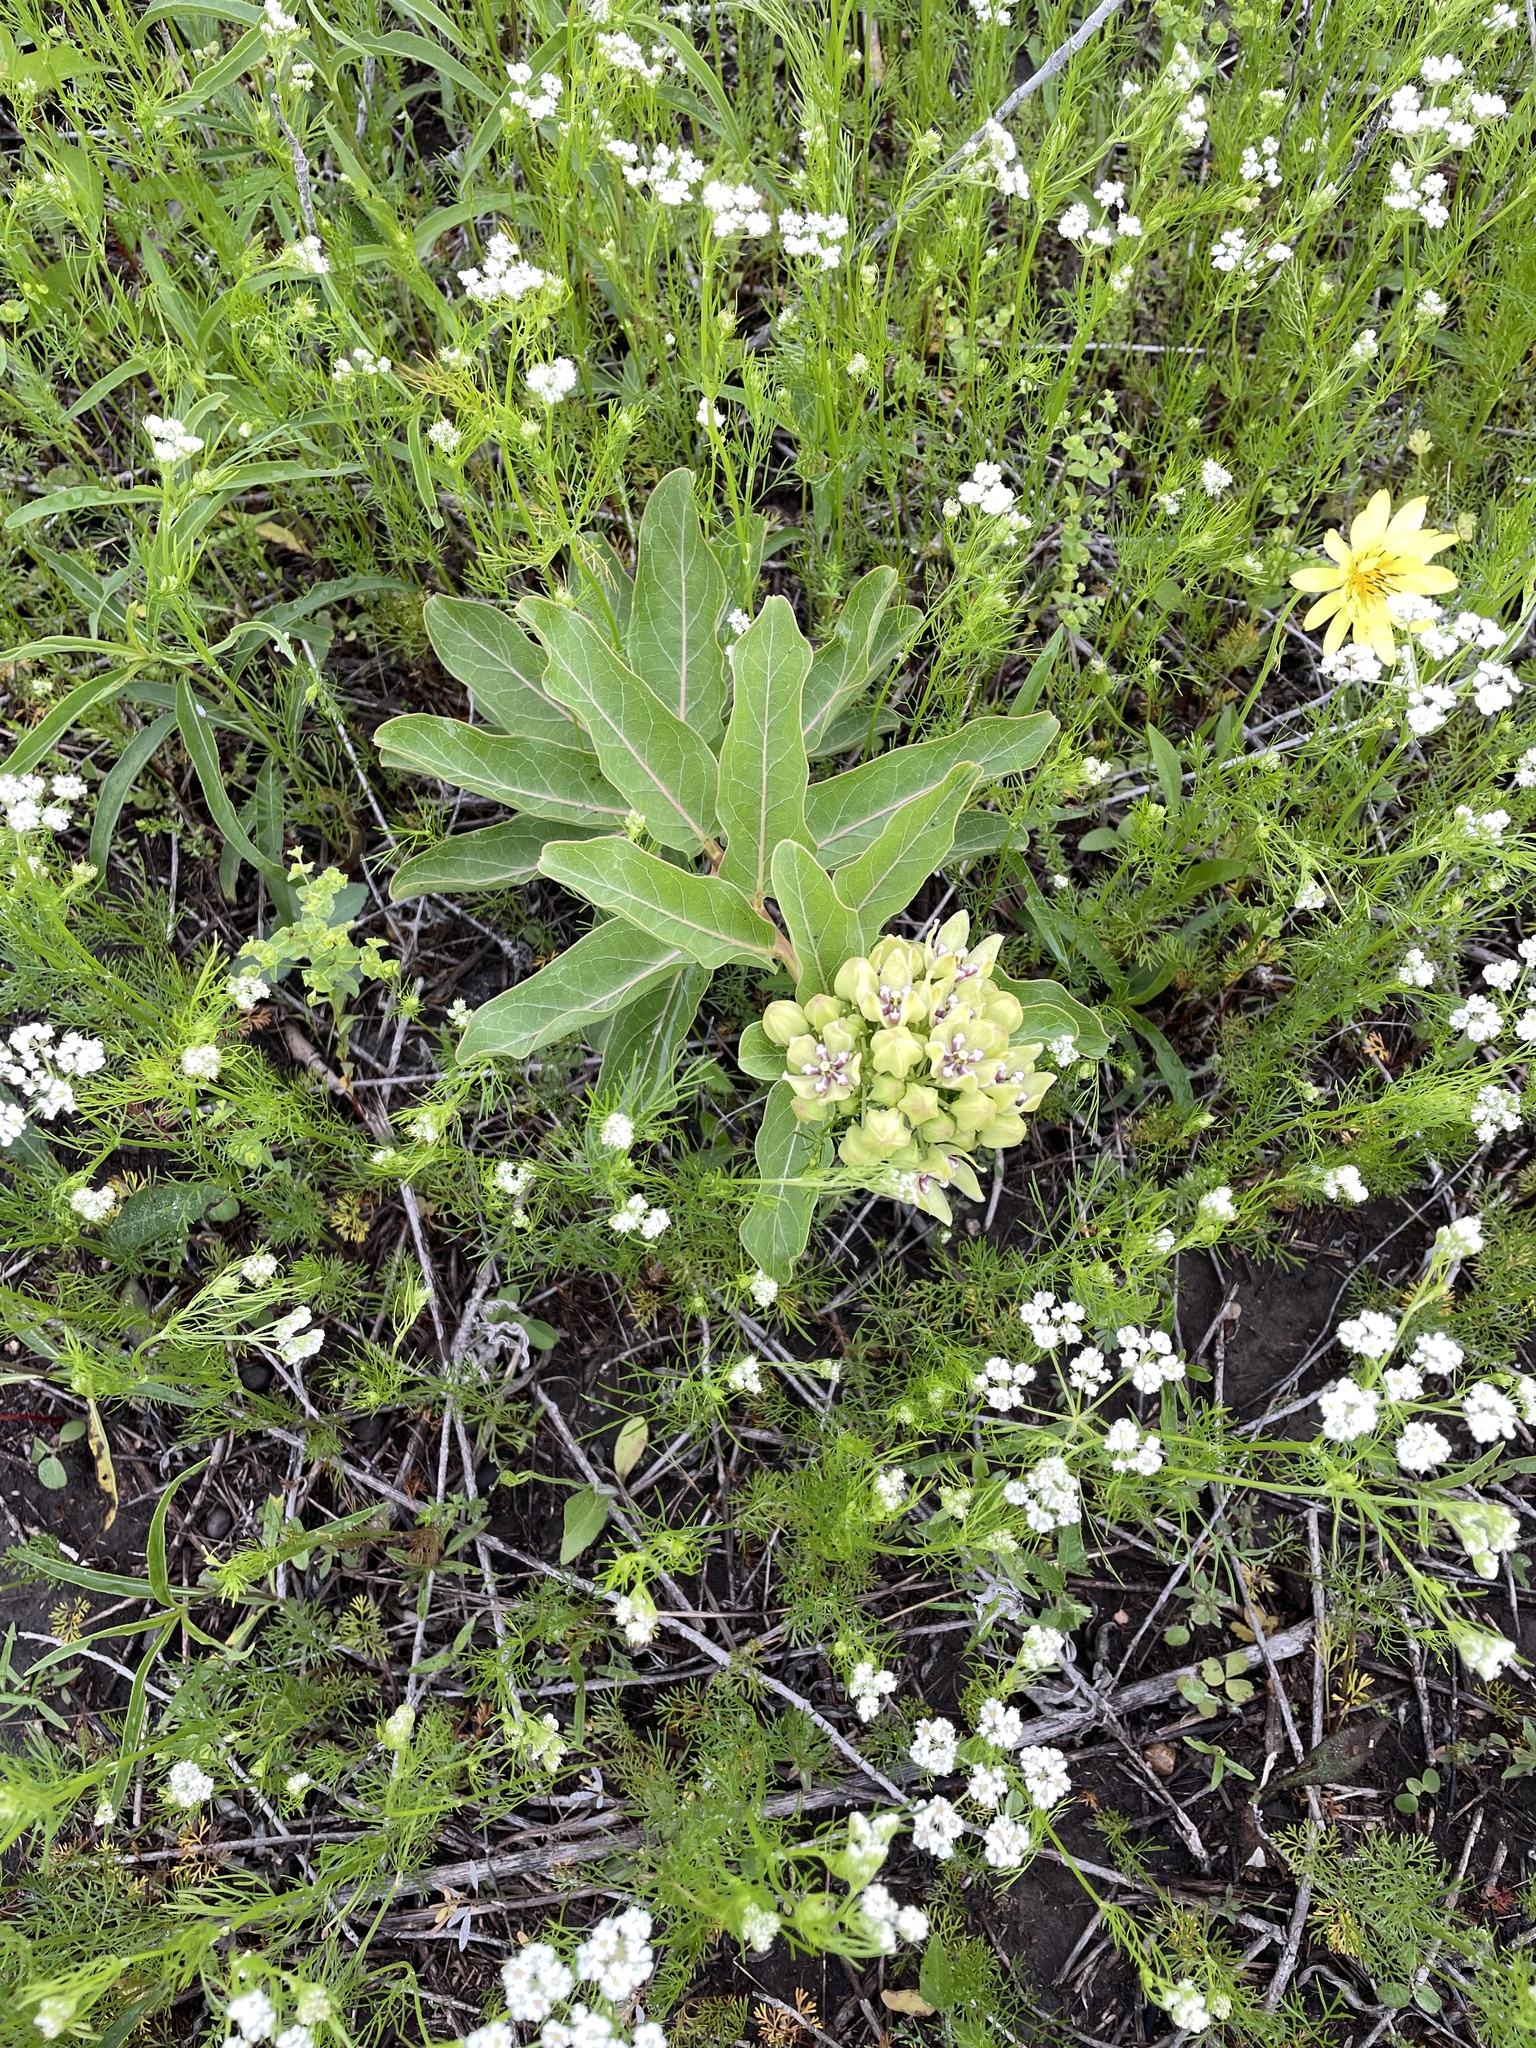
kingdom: Plantae
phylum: Tracheophyta
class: Magnoliopsida
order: Gentianales
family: Apocynaceae
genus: Asclepias
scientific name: Asclepias viridis
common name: Antelope-horns
